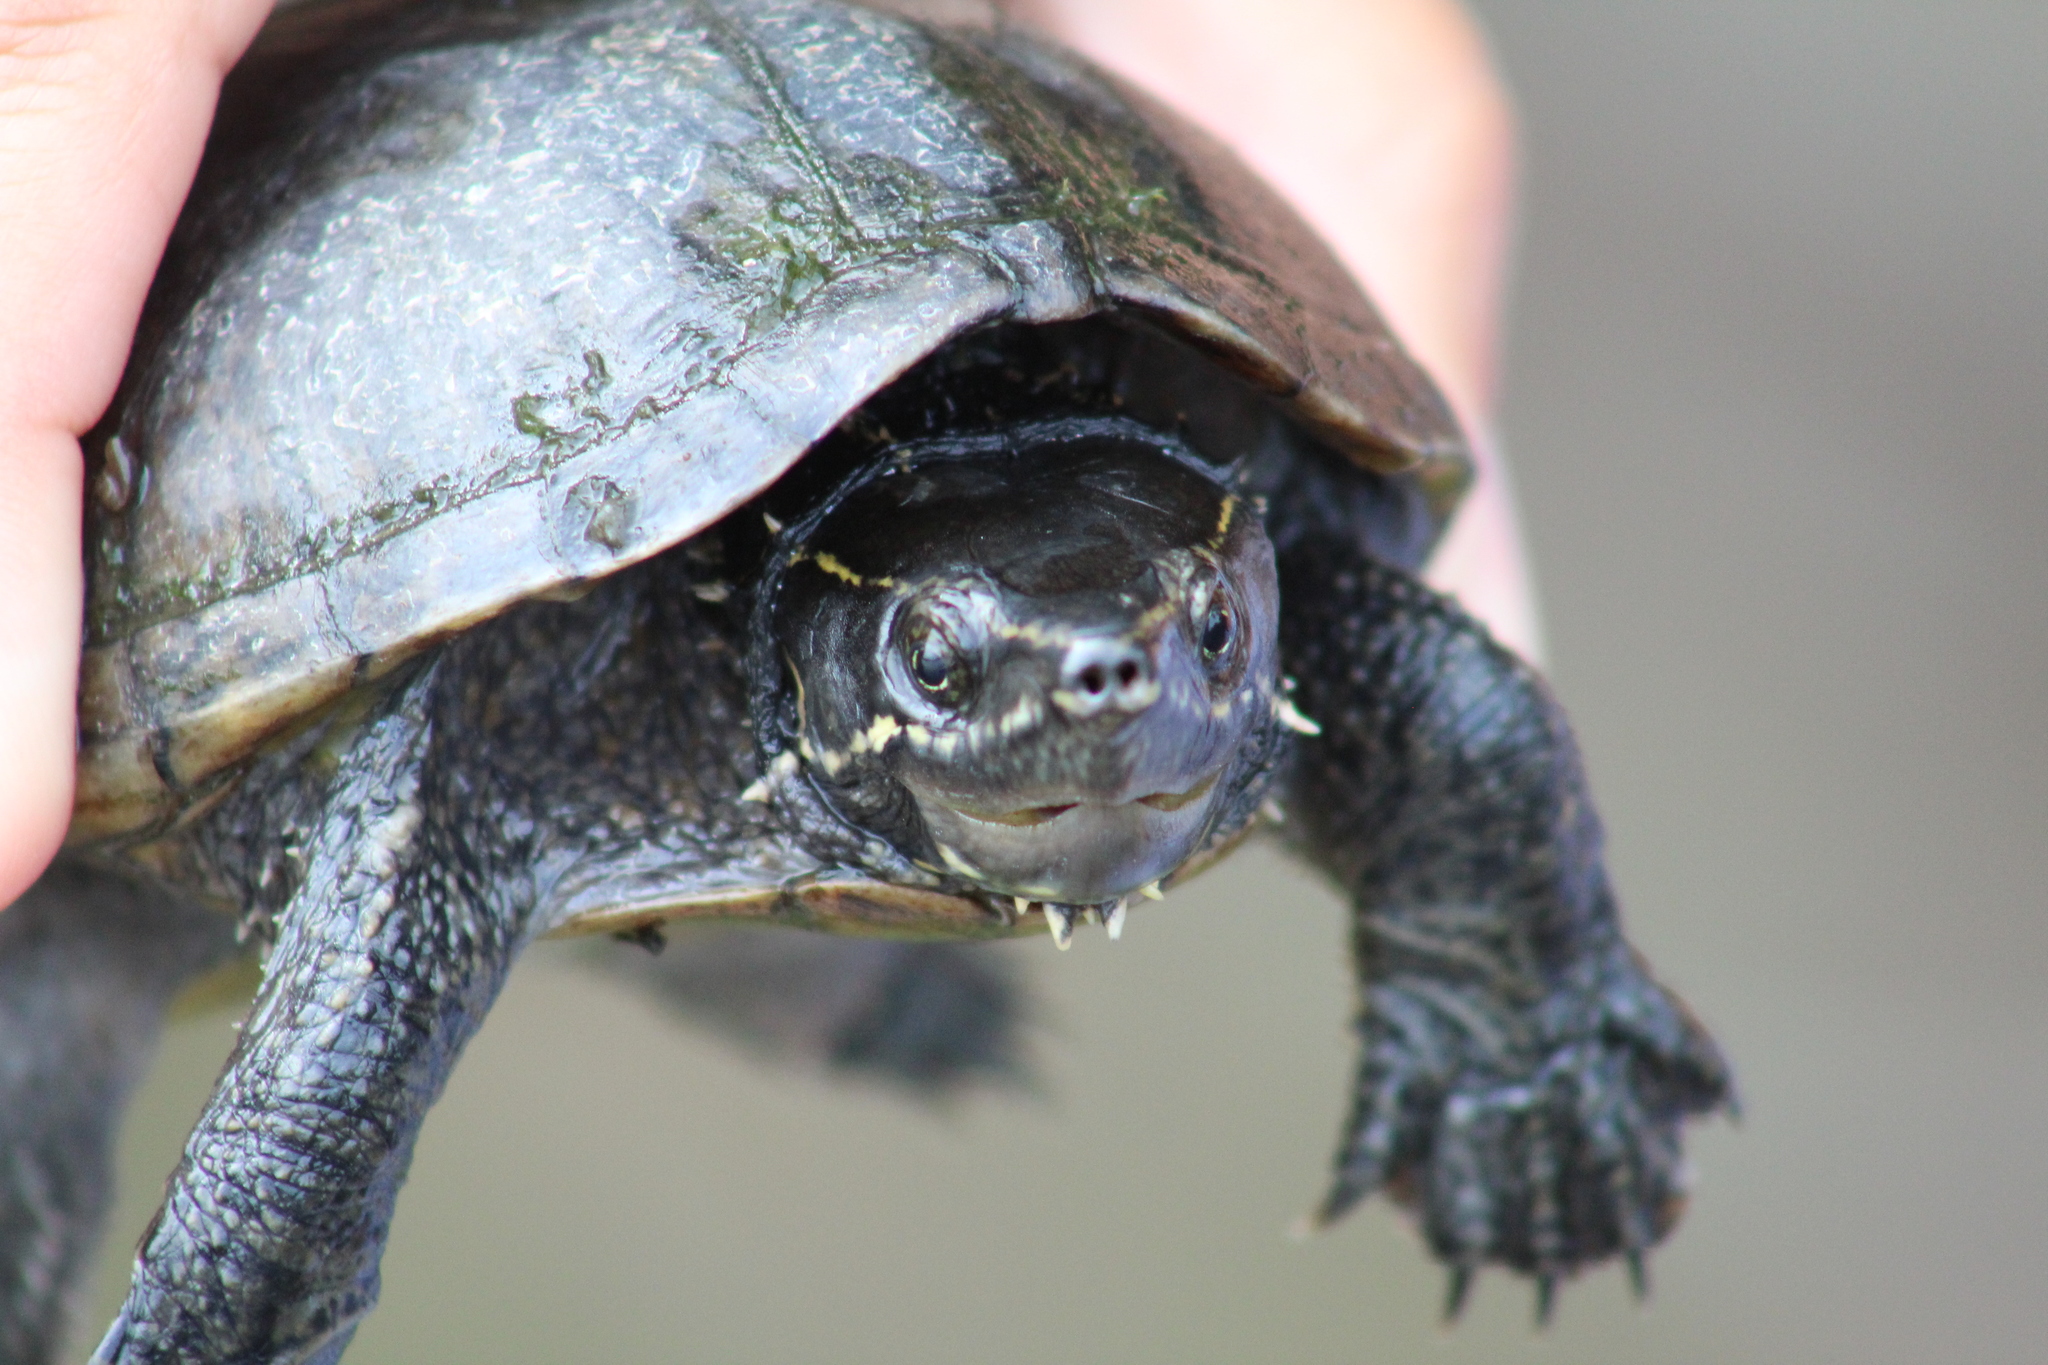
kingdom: Animalia
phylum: Chordata
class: Testudines
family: Kinosternidae
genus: Sternotherus
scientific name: Sternotherus odoratus
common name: Common musk turtle
